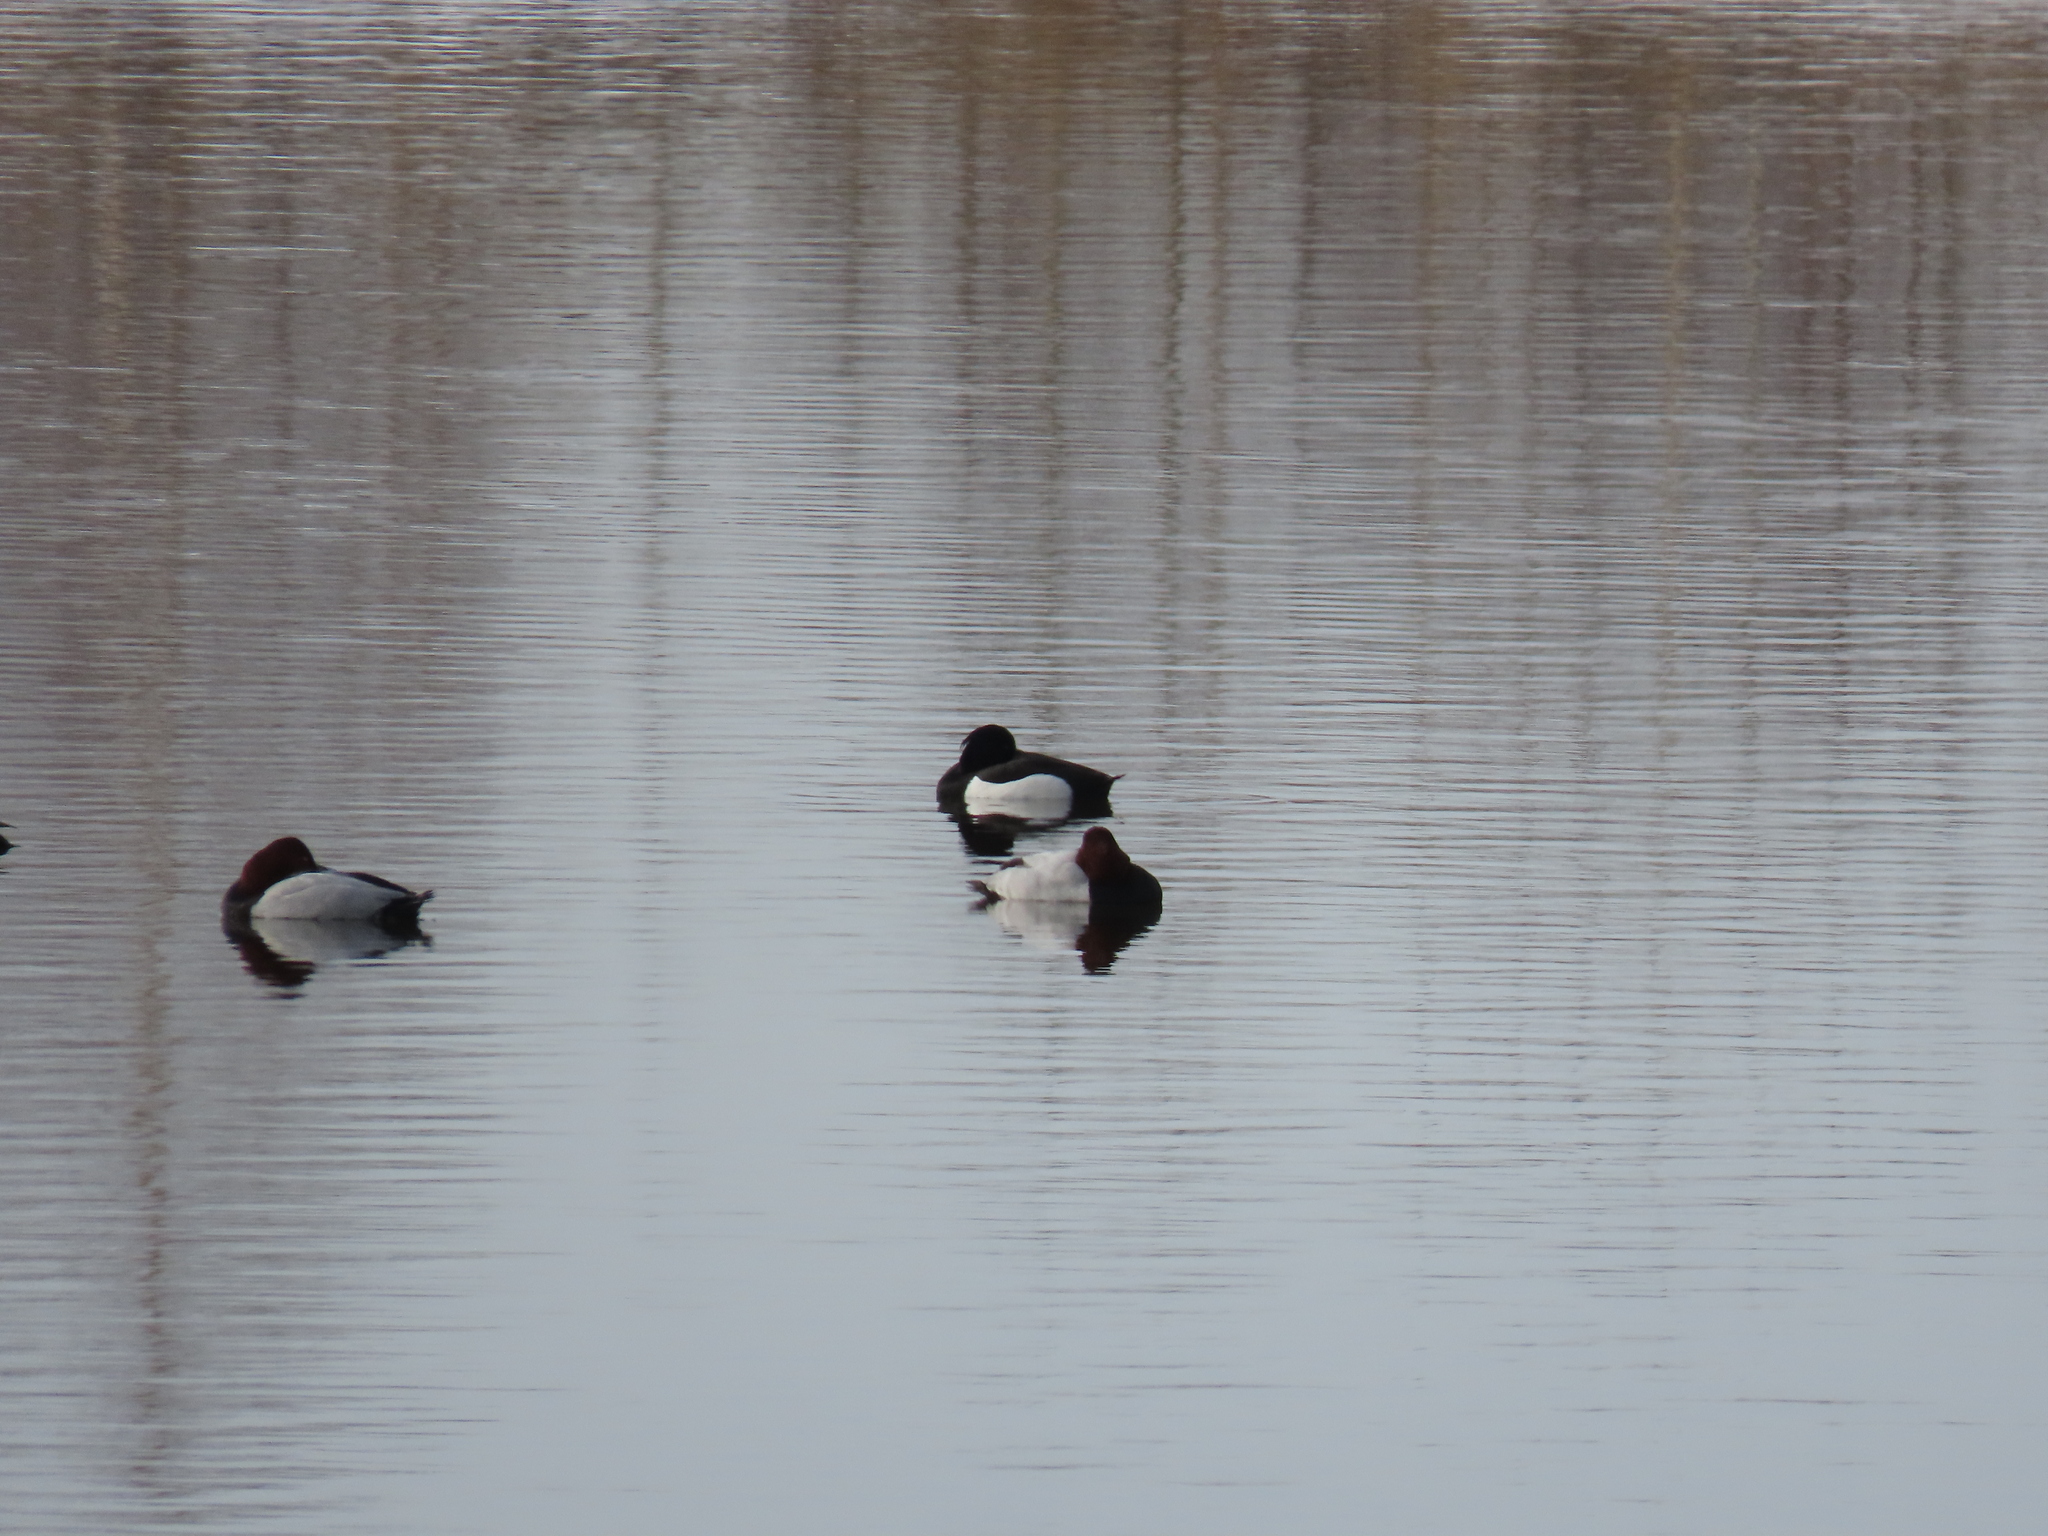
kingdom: Animalia
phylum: Chordata
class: Aves
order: Anseriformes
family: Anatidae
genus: Aythya
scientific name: Aythya fuligula
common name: Tufted duck
